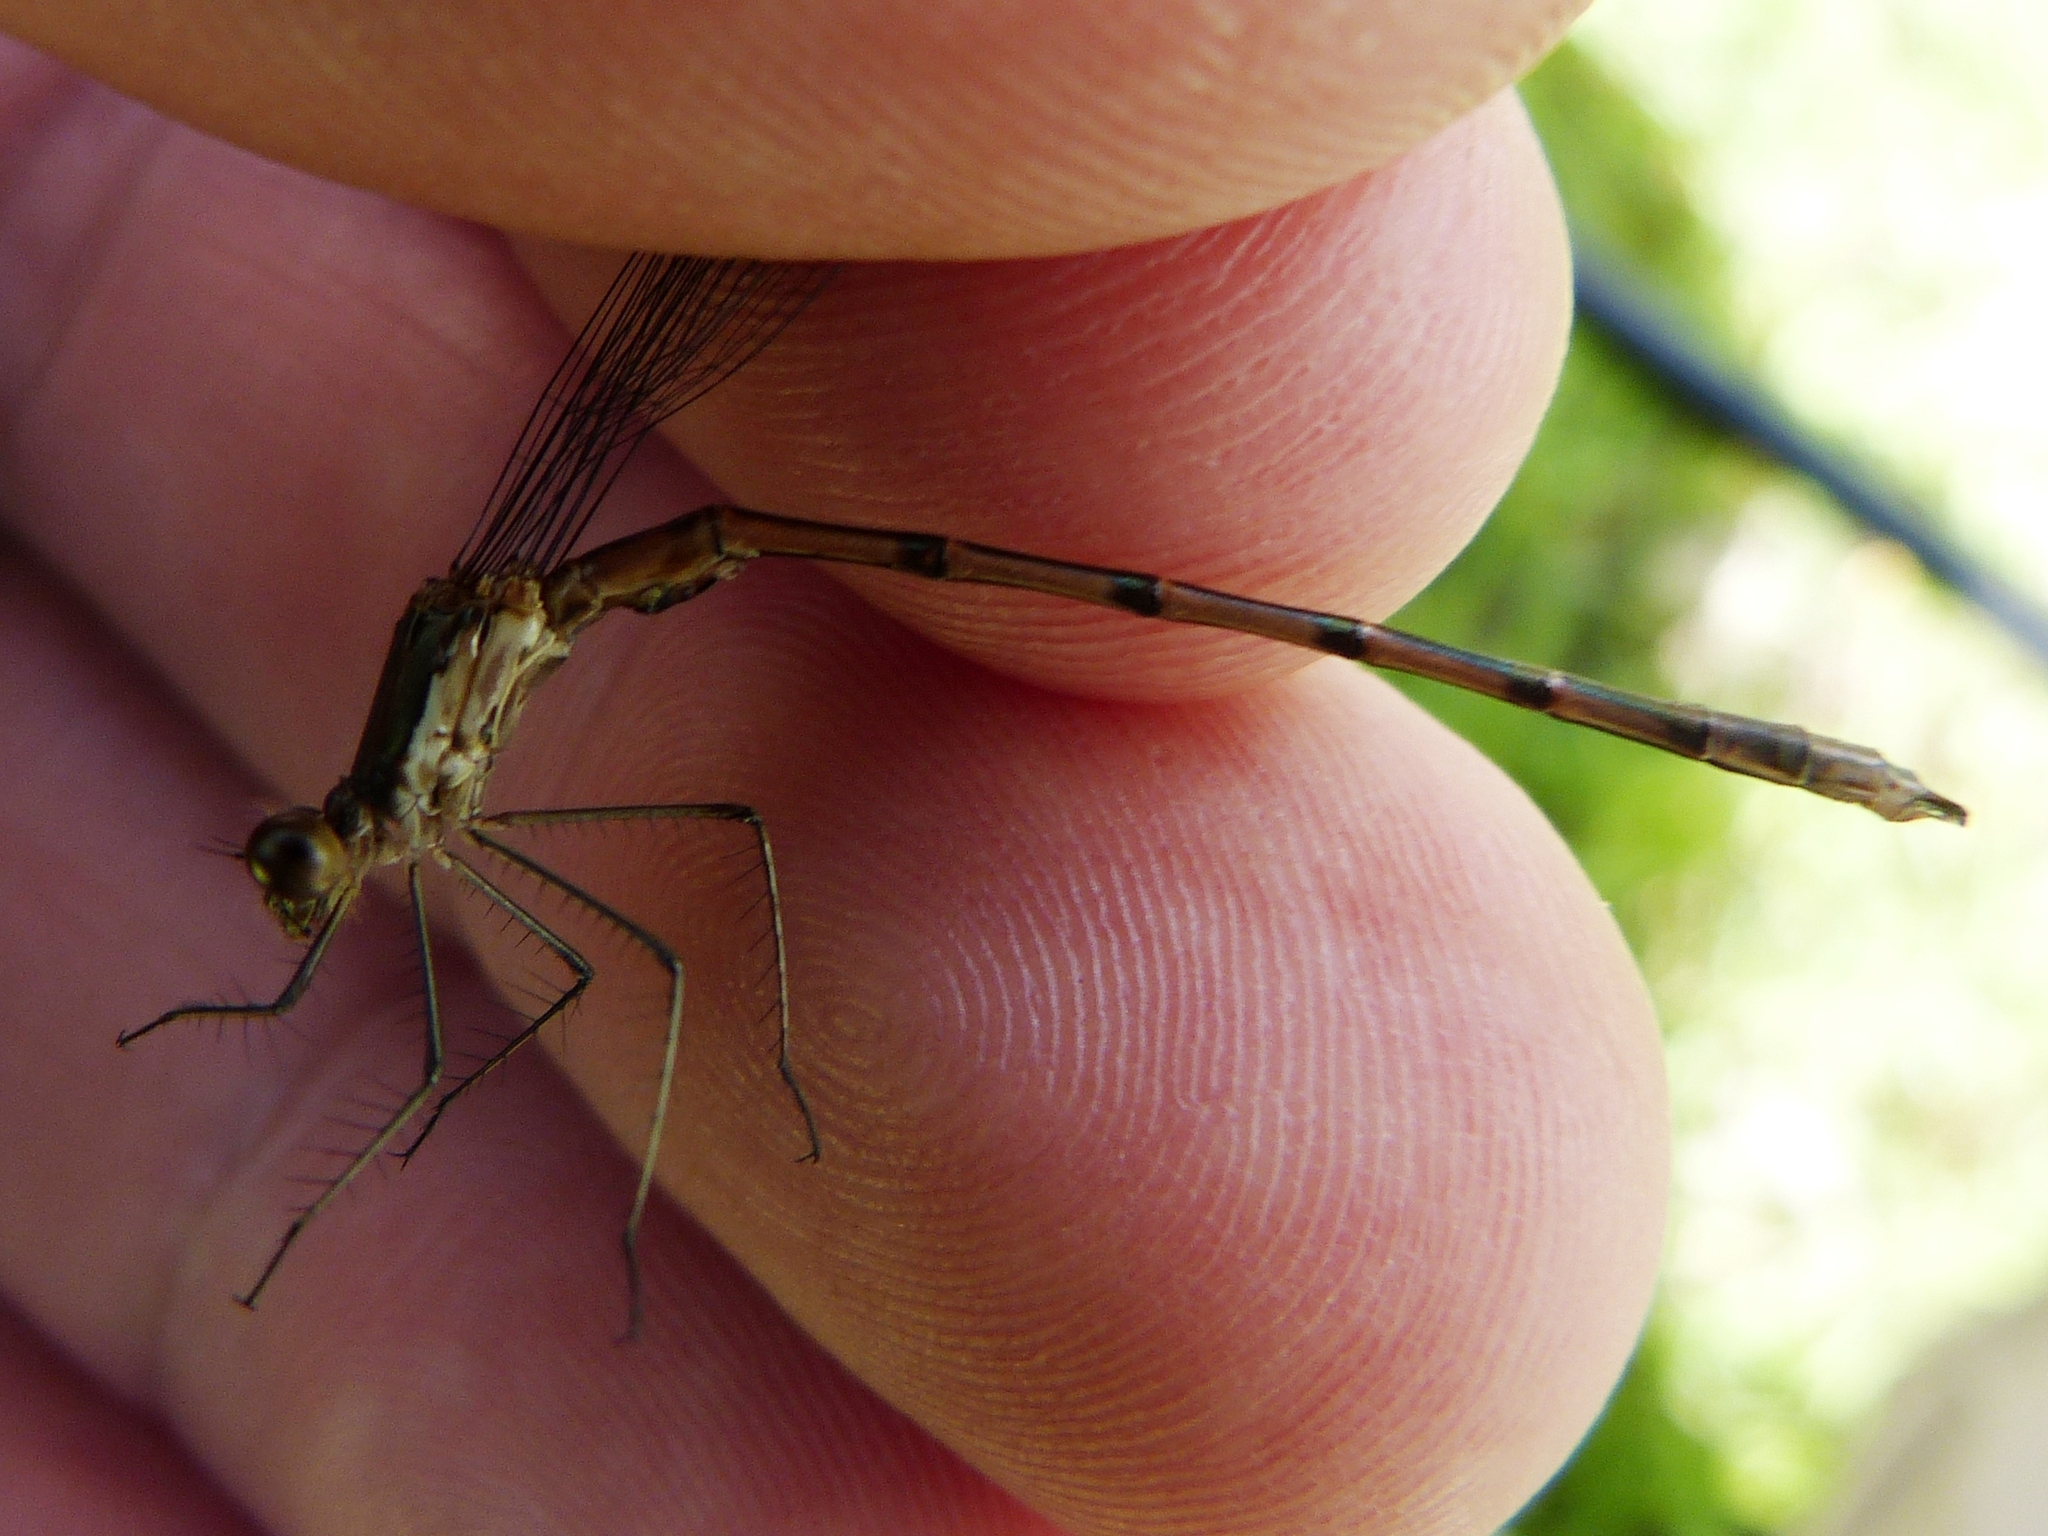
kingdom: Animalia
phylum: Arthropoda
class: Insecta
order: Odonata
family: Lestidae
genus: Lestes
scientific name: Lestes forcipatus
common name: Sweetflag spreadwing
